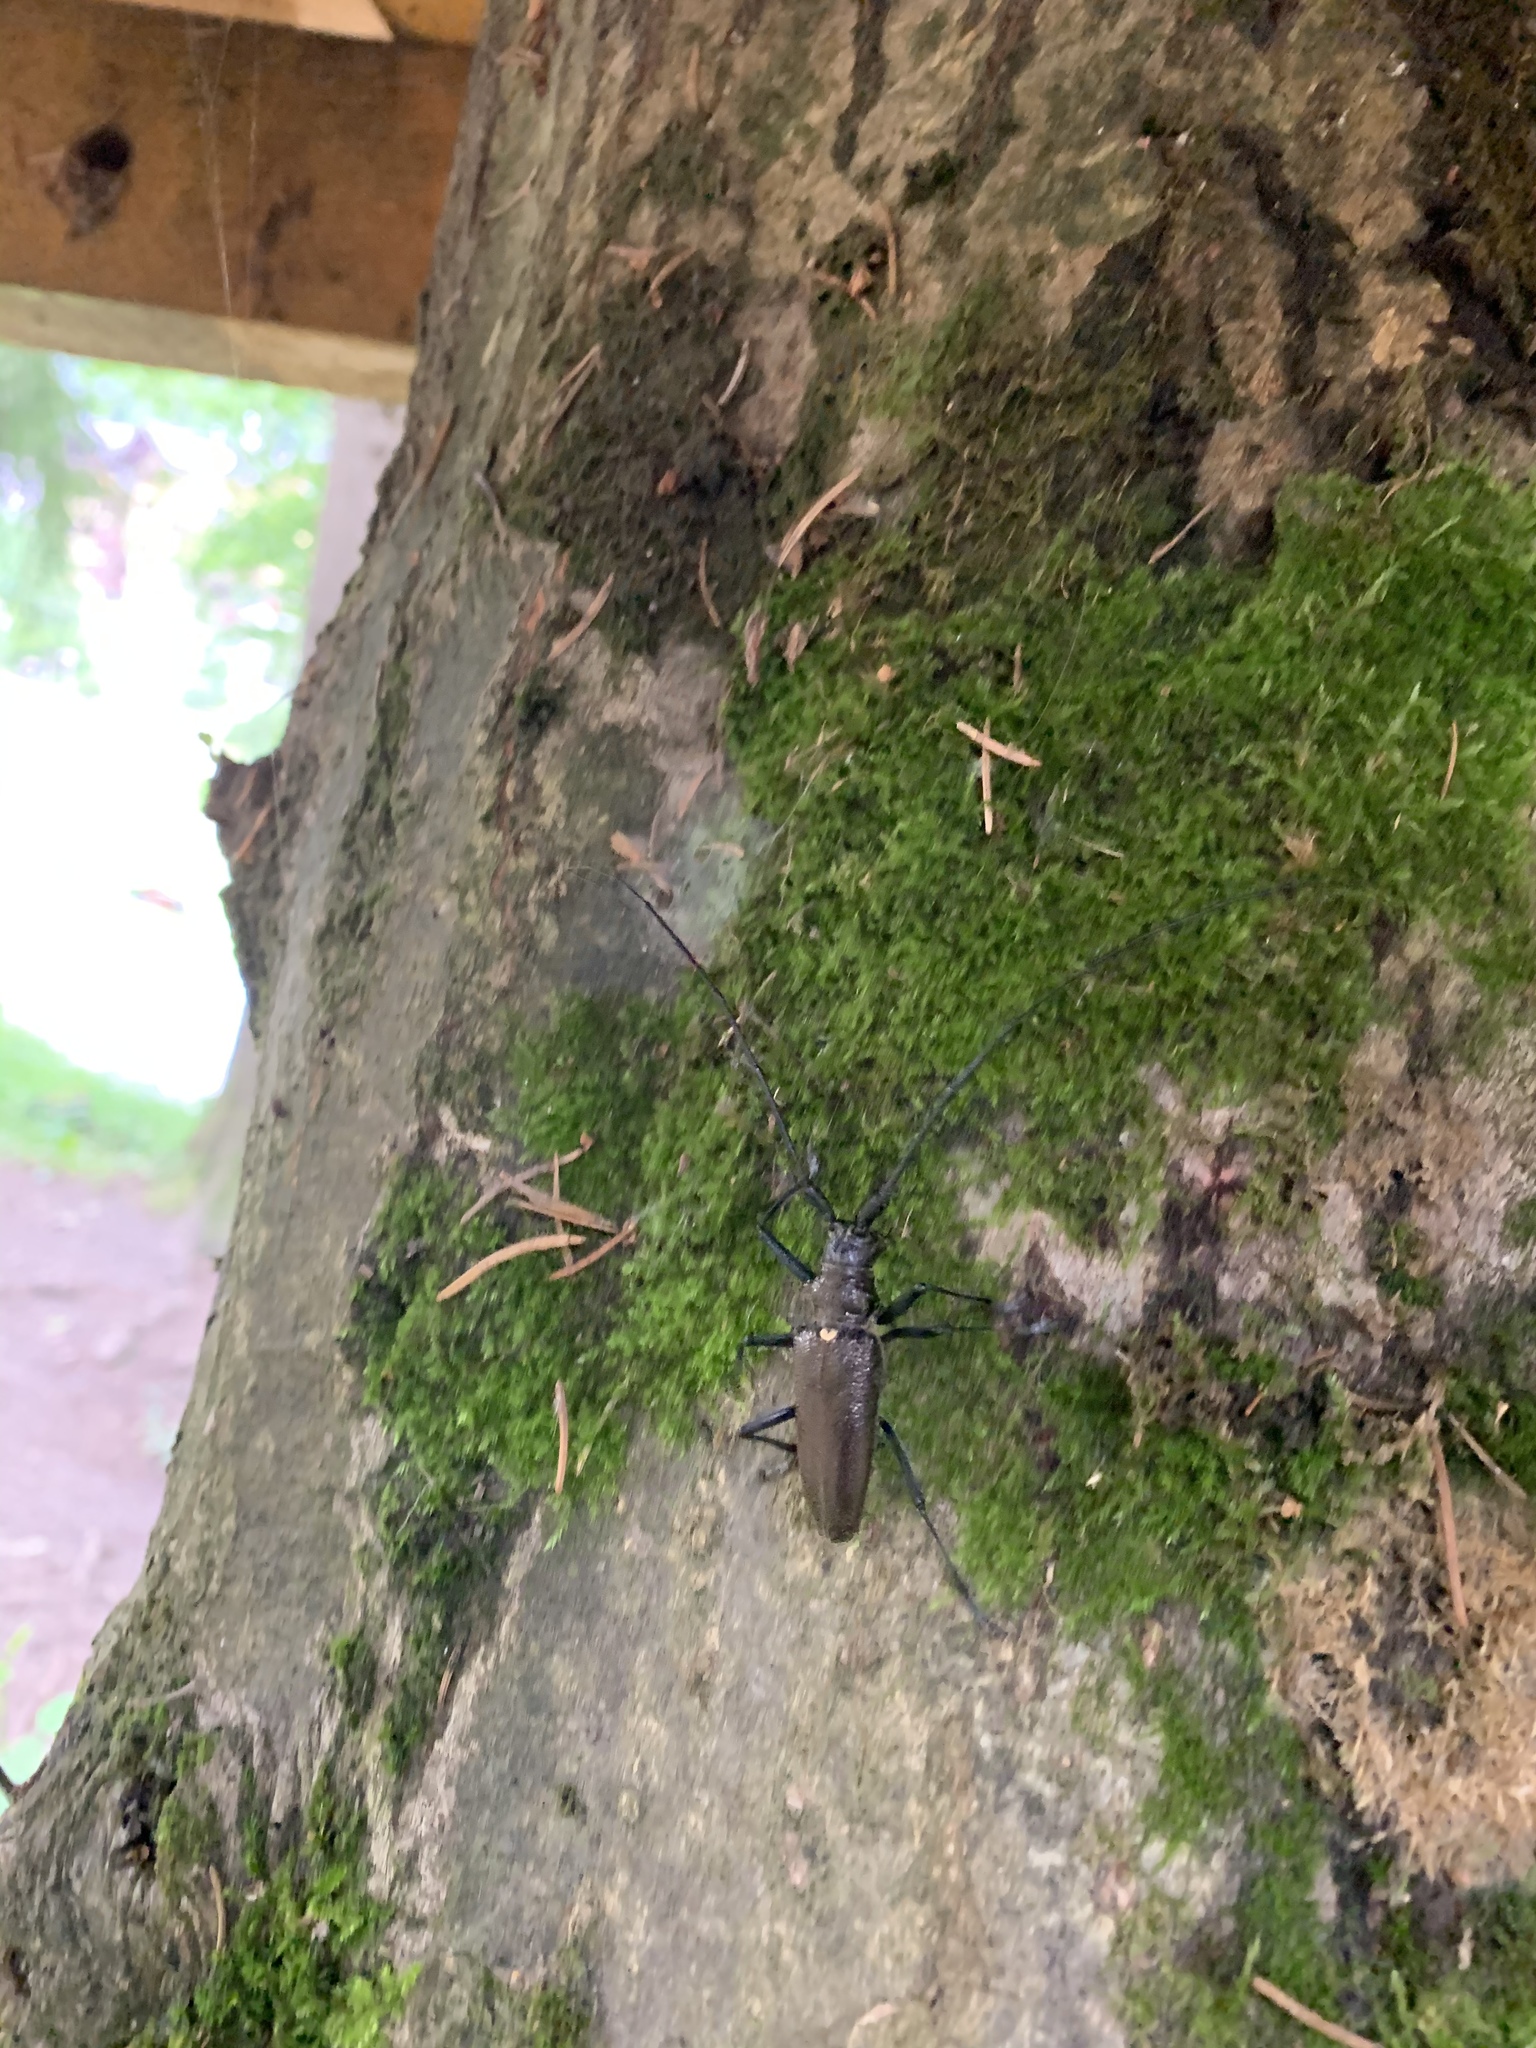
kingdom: Animalia
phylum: Arthropoda
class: Insecta
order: Coleoptera
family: Cerambycidae
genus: Monochamus
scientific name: Monochamus sartor
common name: Pine sawyer
